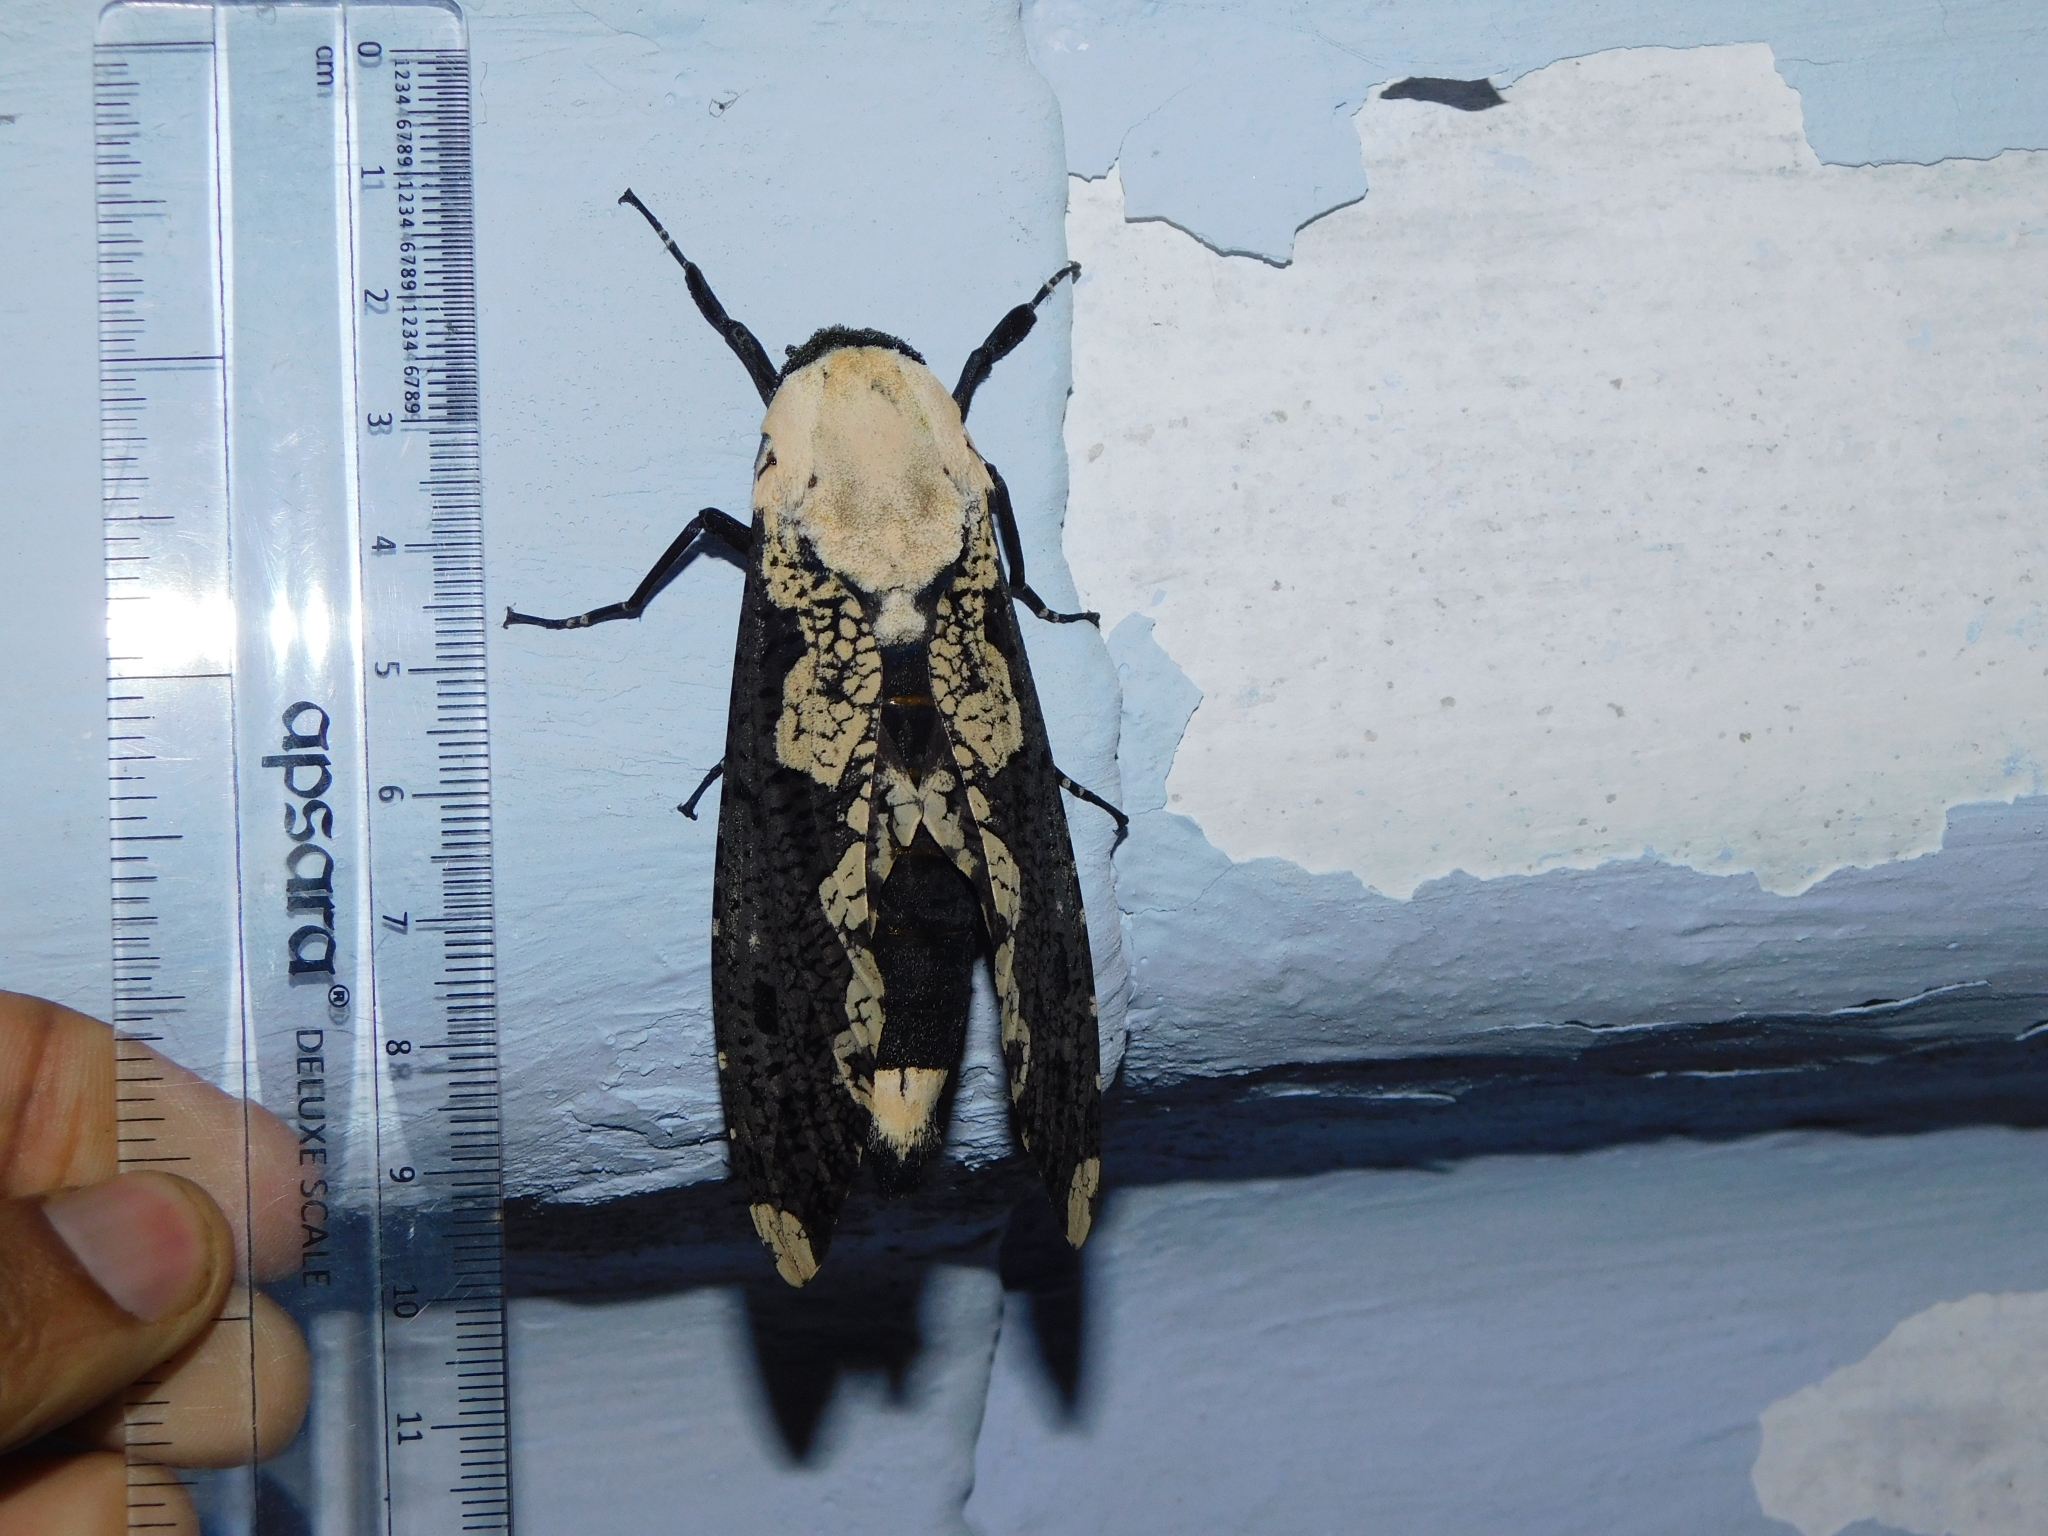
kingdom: Animalia
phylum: Arthropoda
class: Insecta
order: Lepidoptera
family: Cossidae
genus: Xyleutes
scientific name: Xyleutes persona
